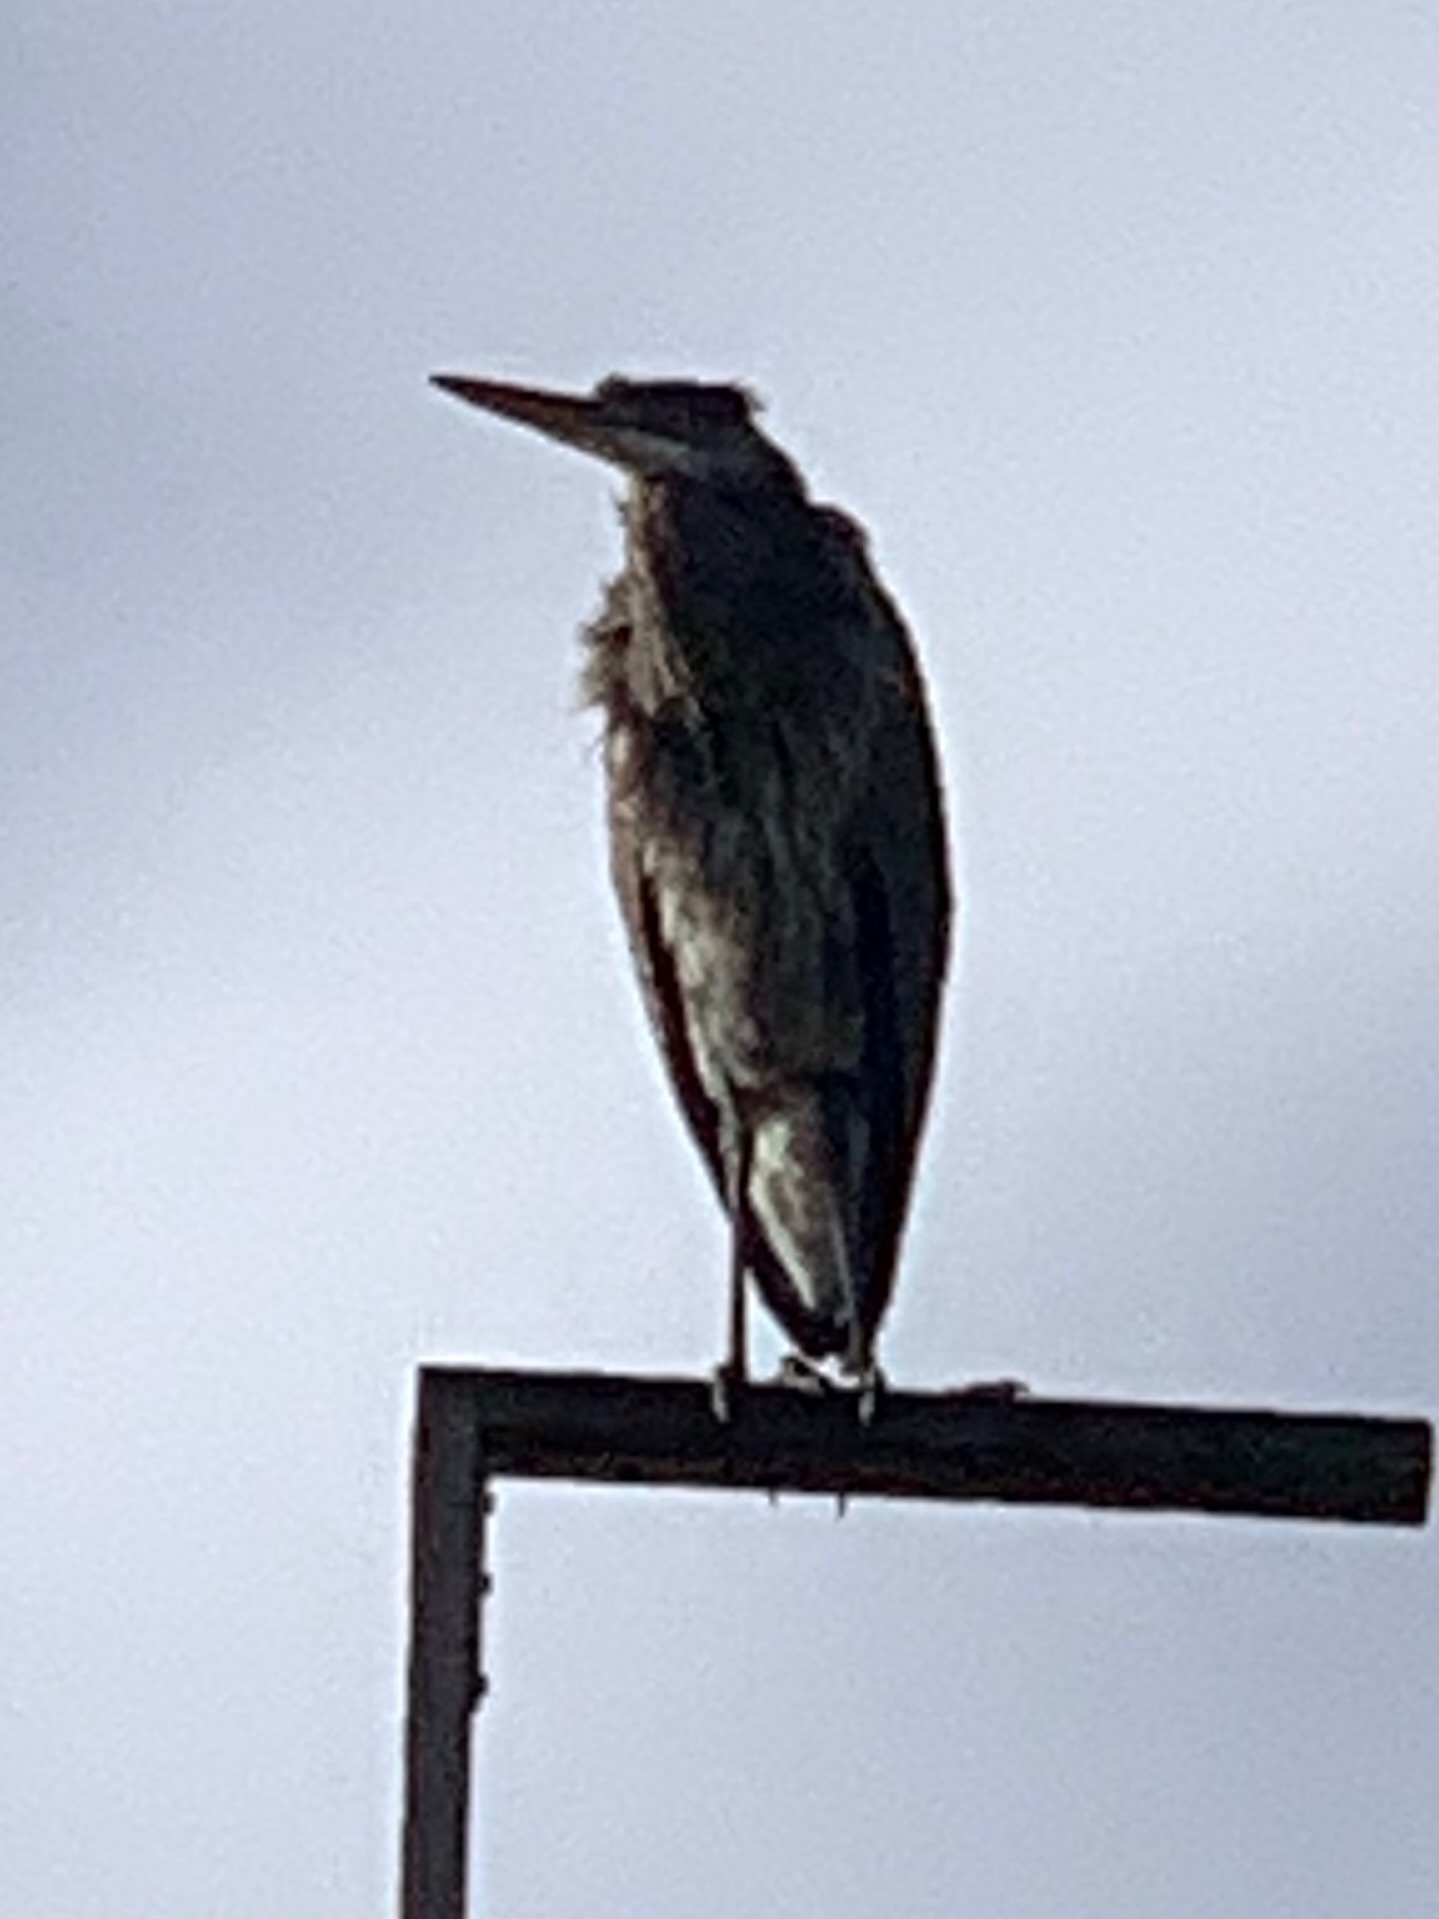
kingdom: Animalia
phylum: Chordata
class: Aves
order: Pelecaniformes
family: Ardeidae
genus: Ardea
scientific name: Ardea herodias
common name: Great blue heron
